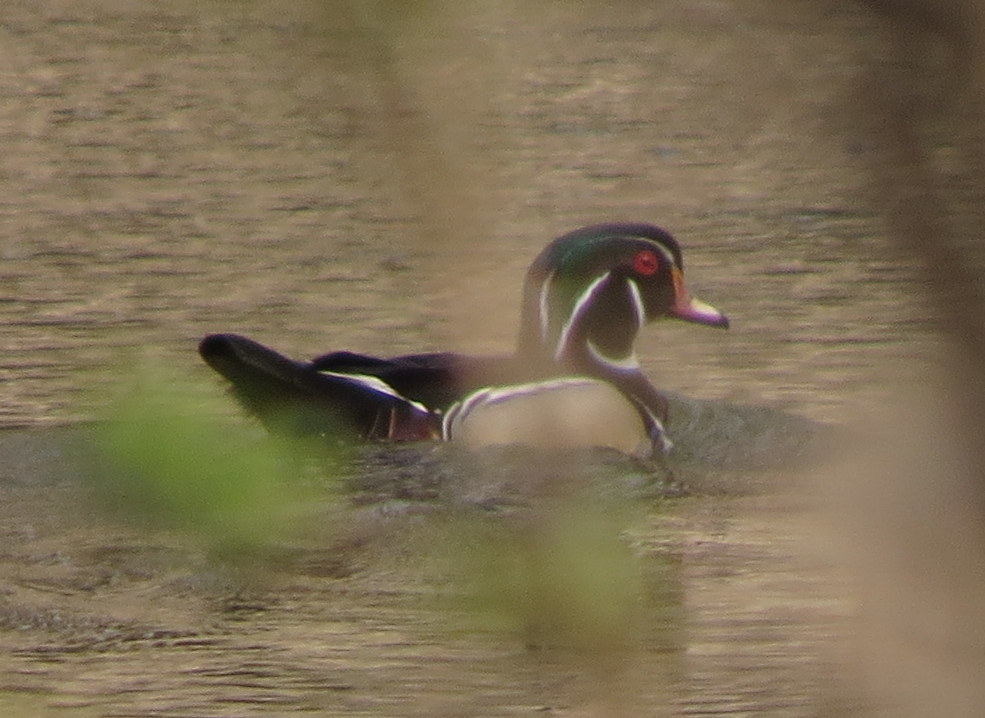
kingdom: Animalia
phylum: Chordata
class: Aves
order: Anseriformes
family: Anatidae
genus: Aix
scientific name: Aix sponsa
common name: Wood duck
